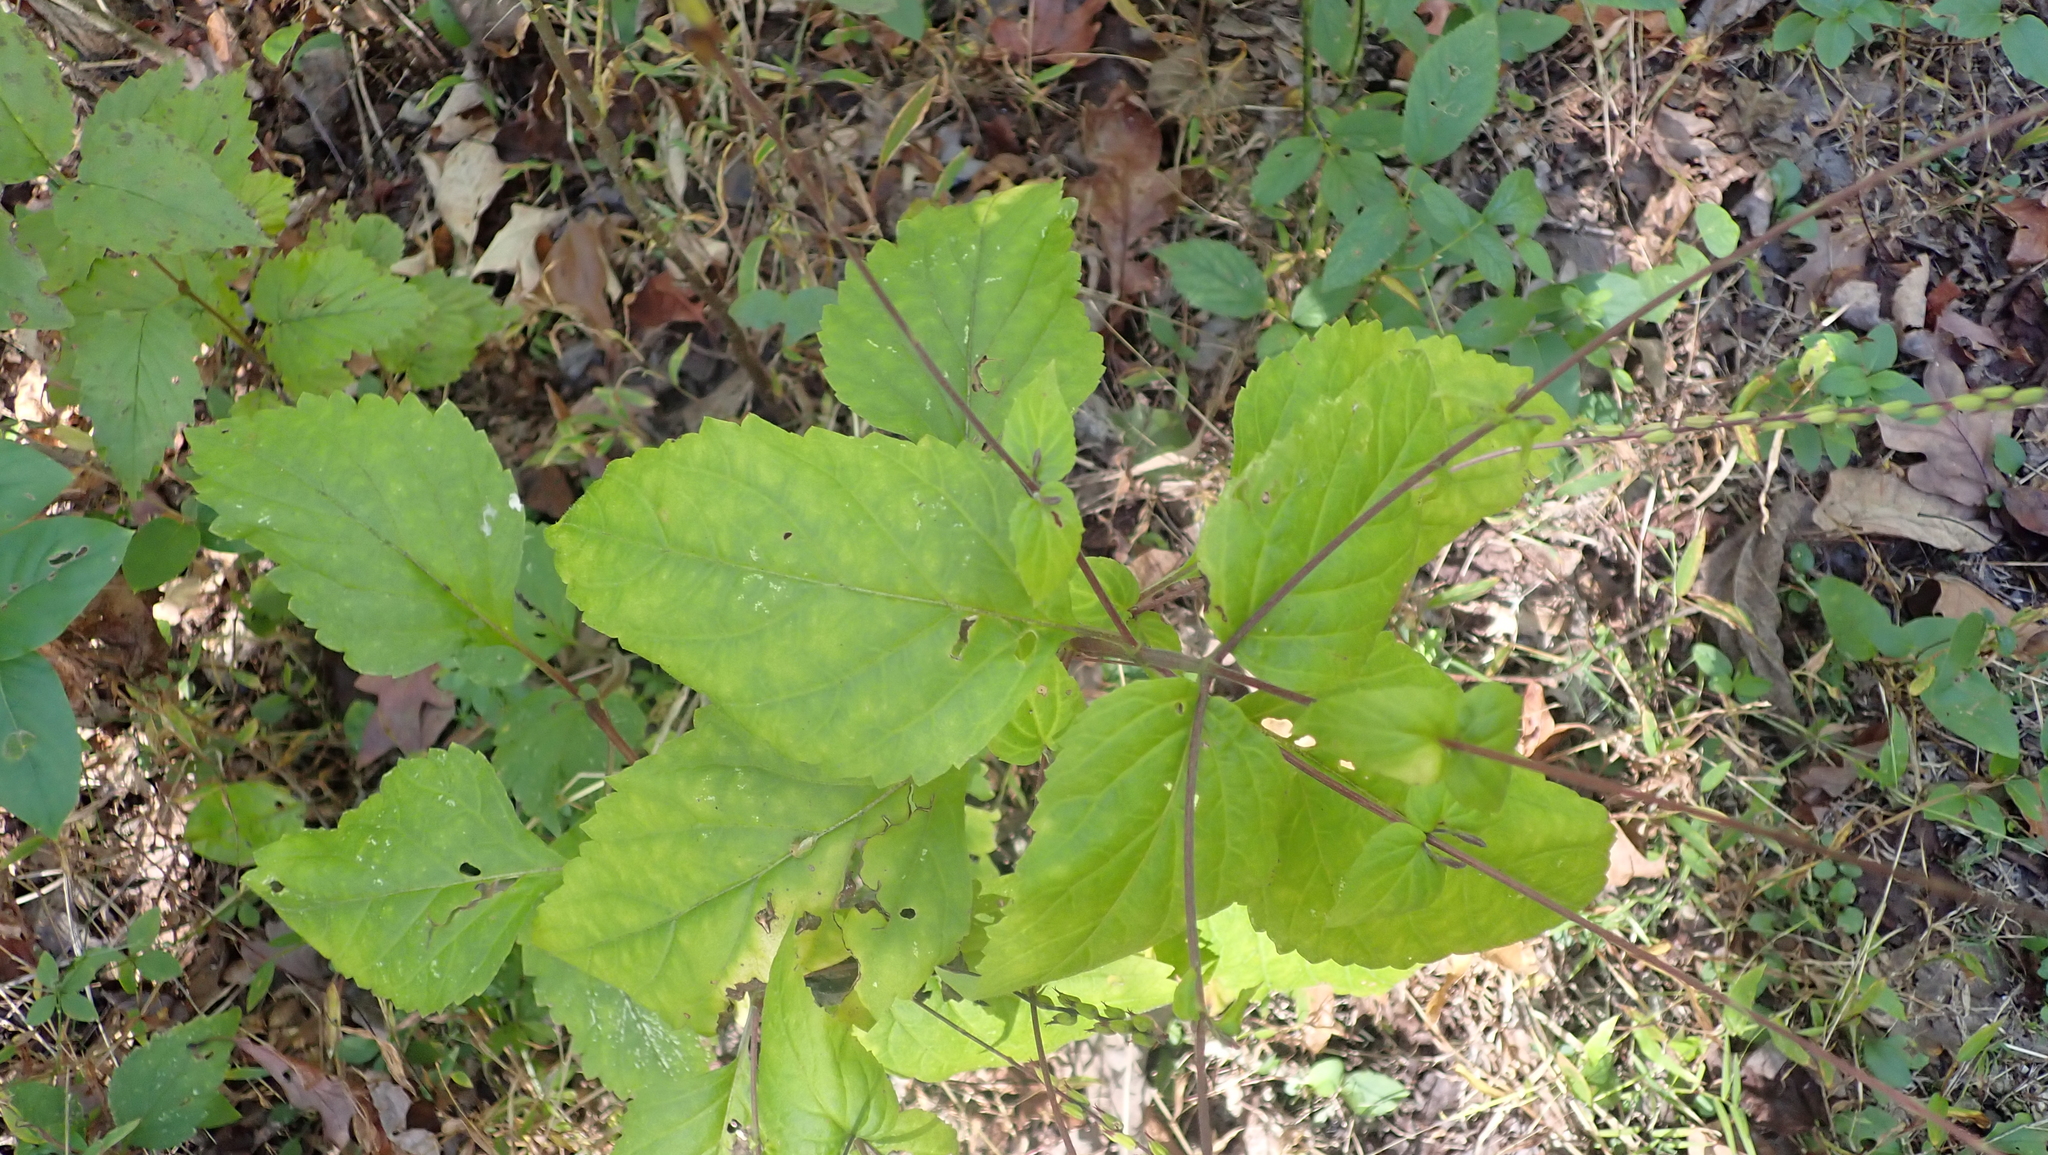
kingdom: Plantae
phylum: Tracheophyta
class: Magnoliopsida
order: Lamiales
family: Phrymaceae
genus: Phryma
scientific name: Phryma leptostachya
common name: American lopseed
